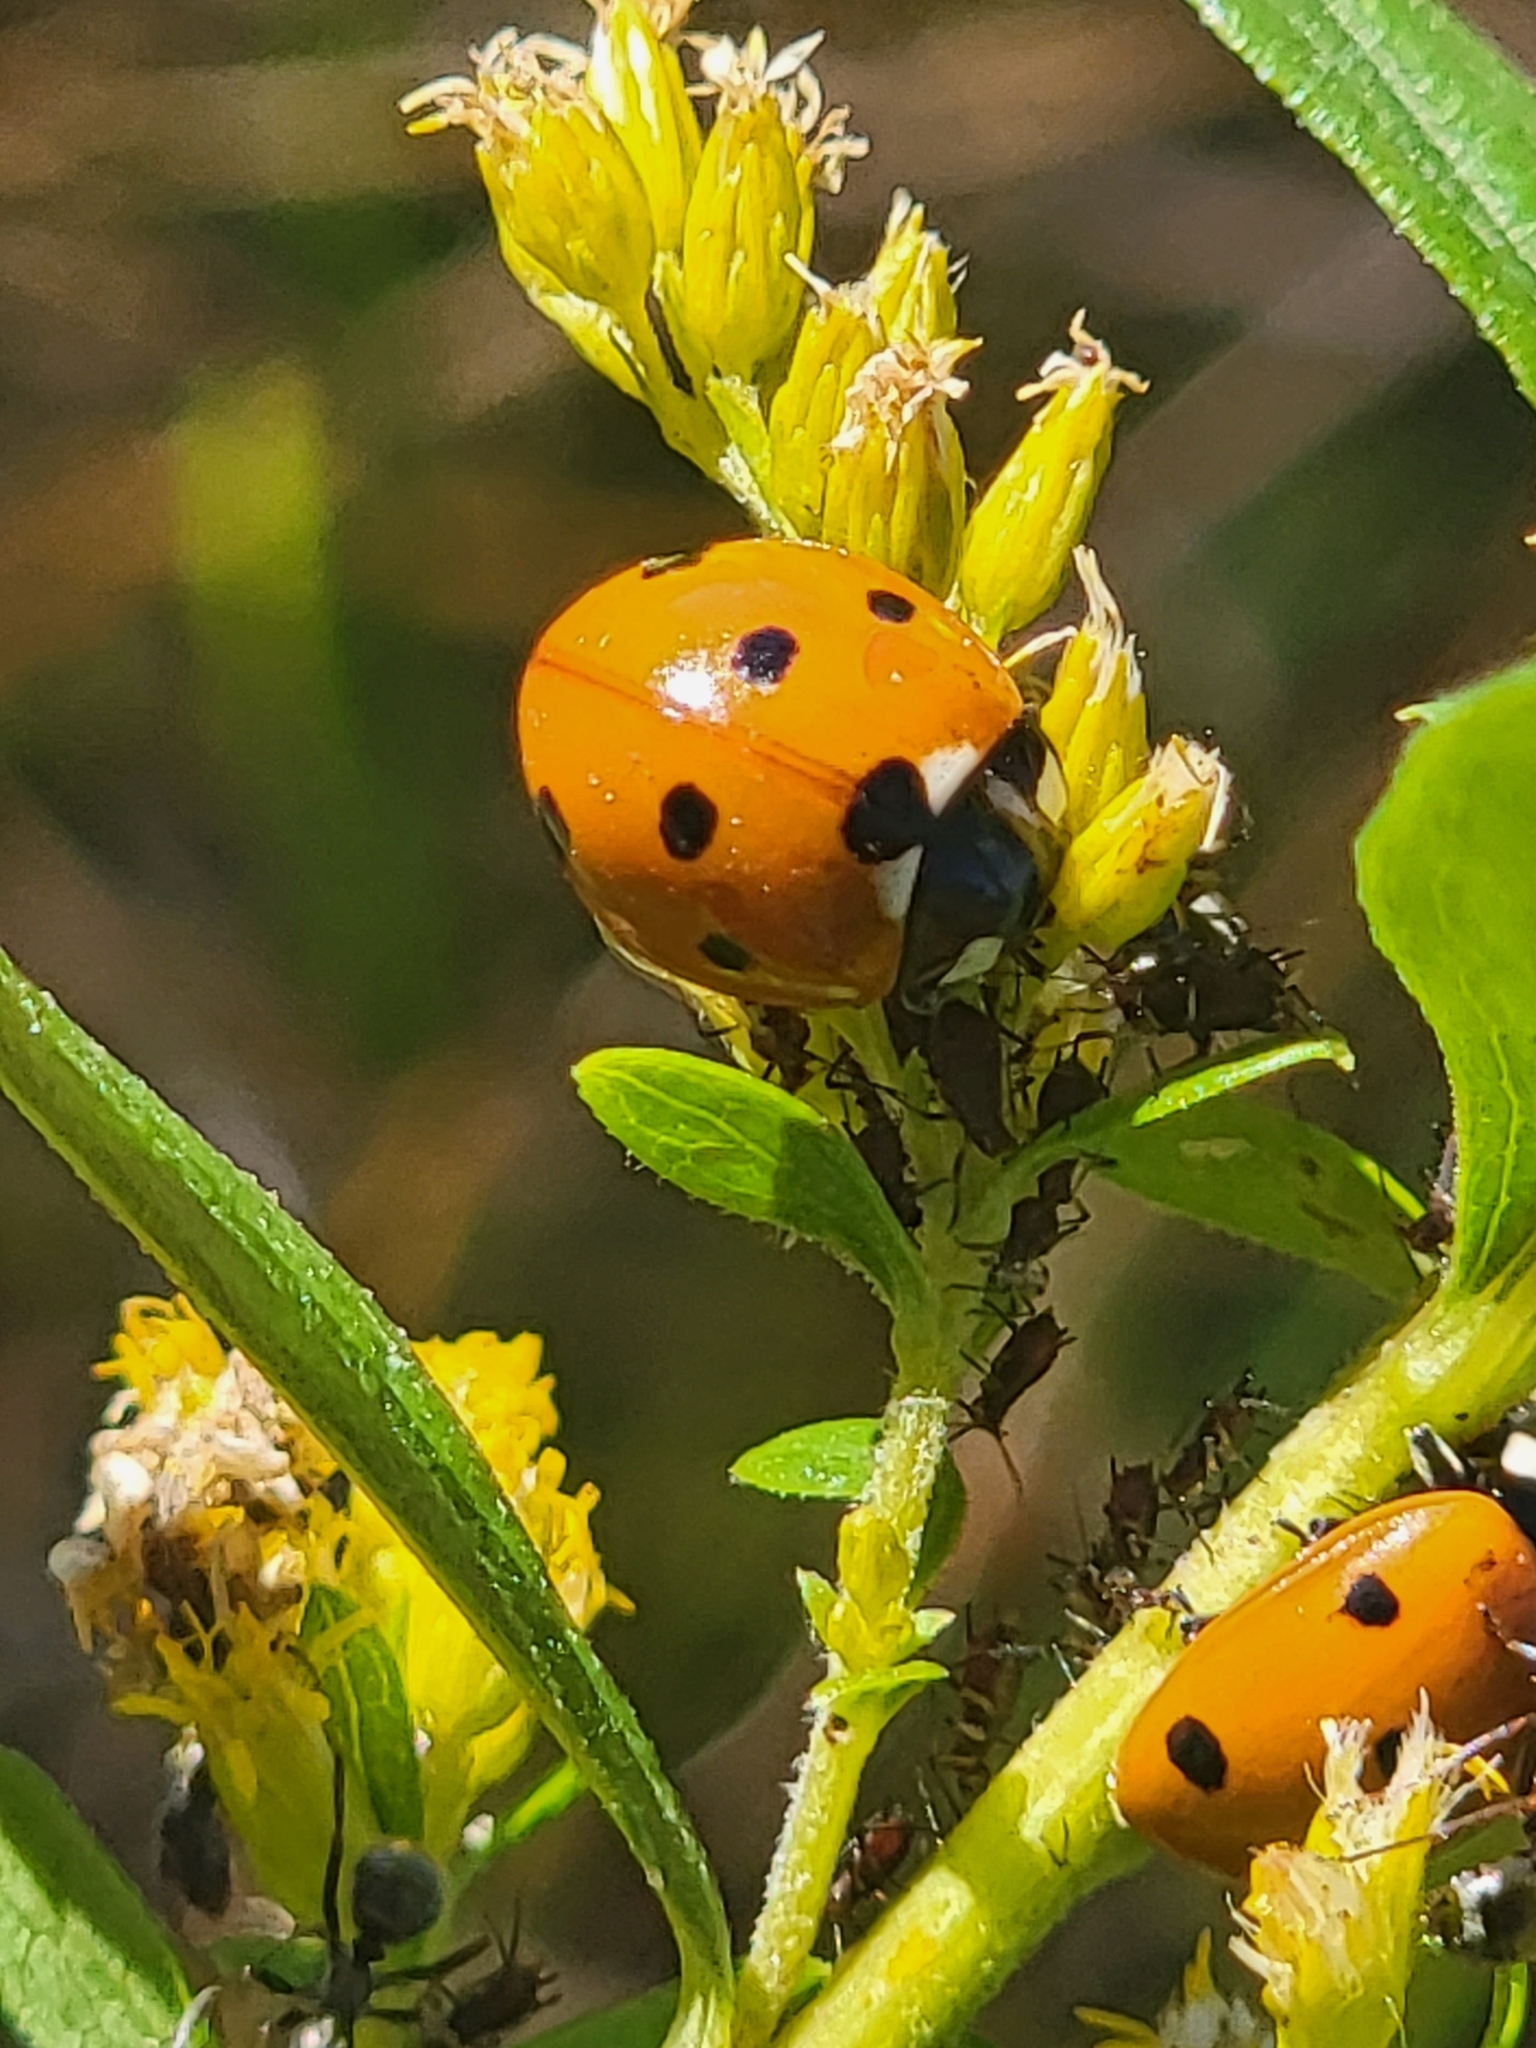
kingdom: Animalia
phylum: Arthropoda
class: Insecta
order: Coleoptera
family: Coccinellidae
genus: Coccinella
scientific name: Coccinella septempunctata
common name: Sevenspotted lady beetle
